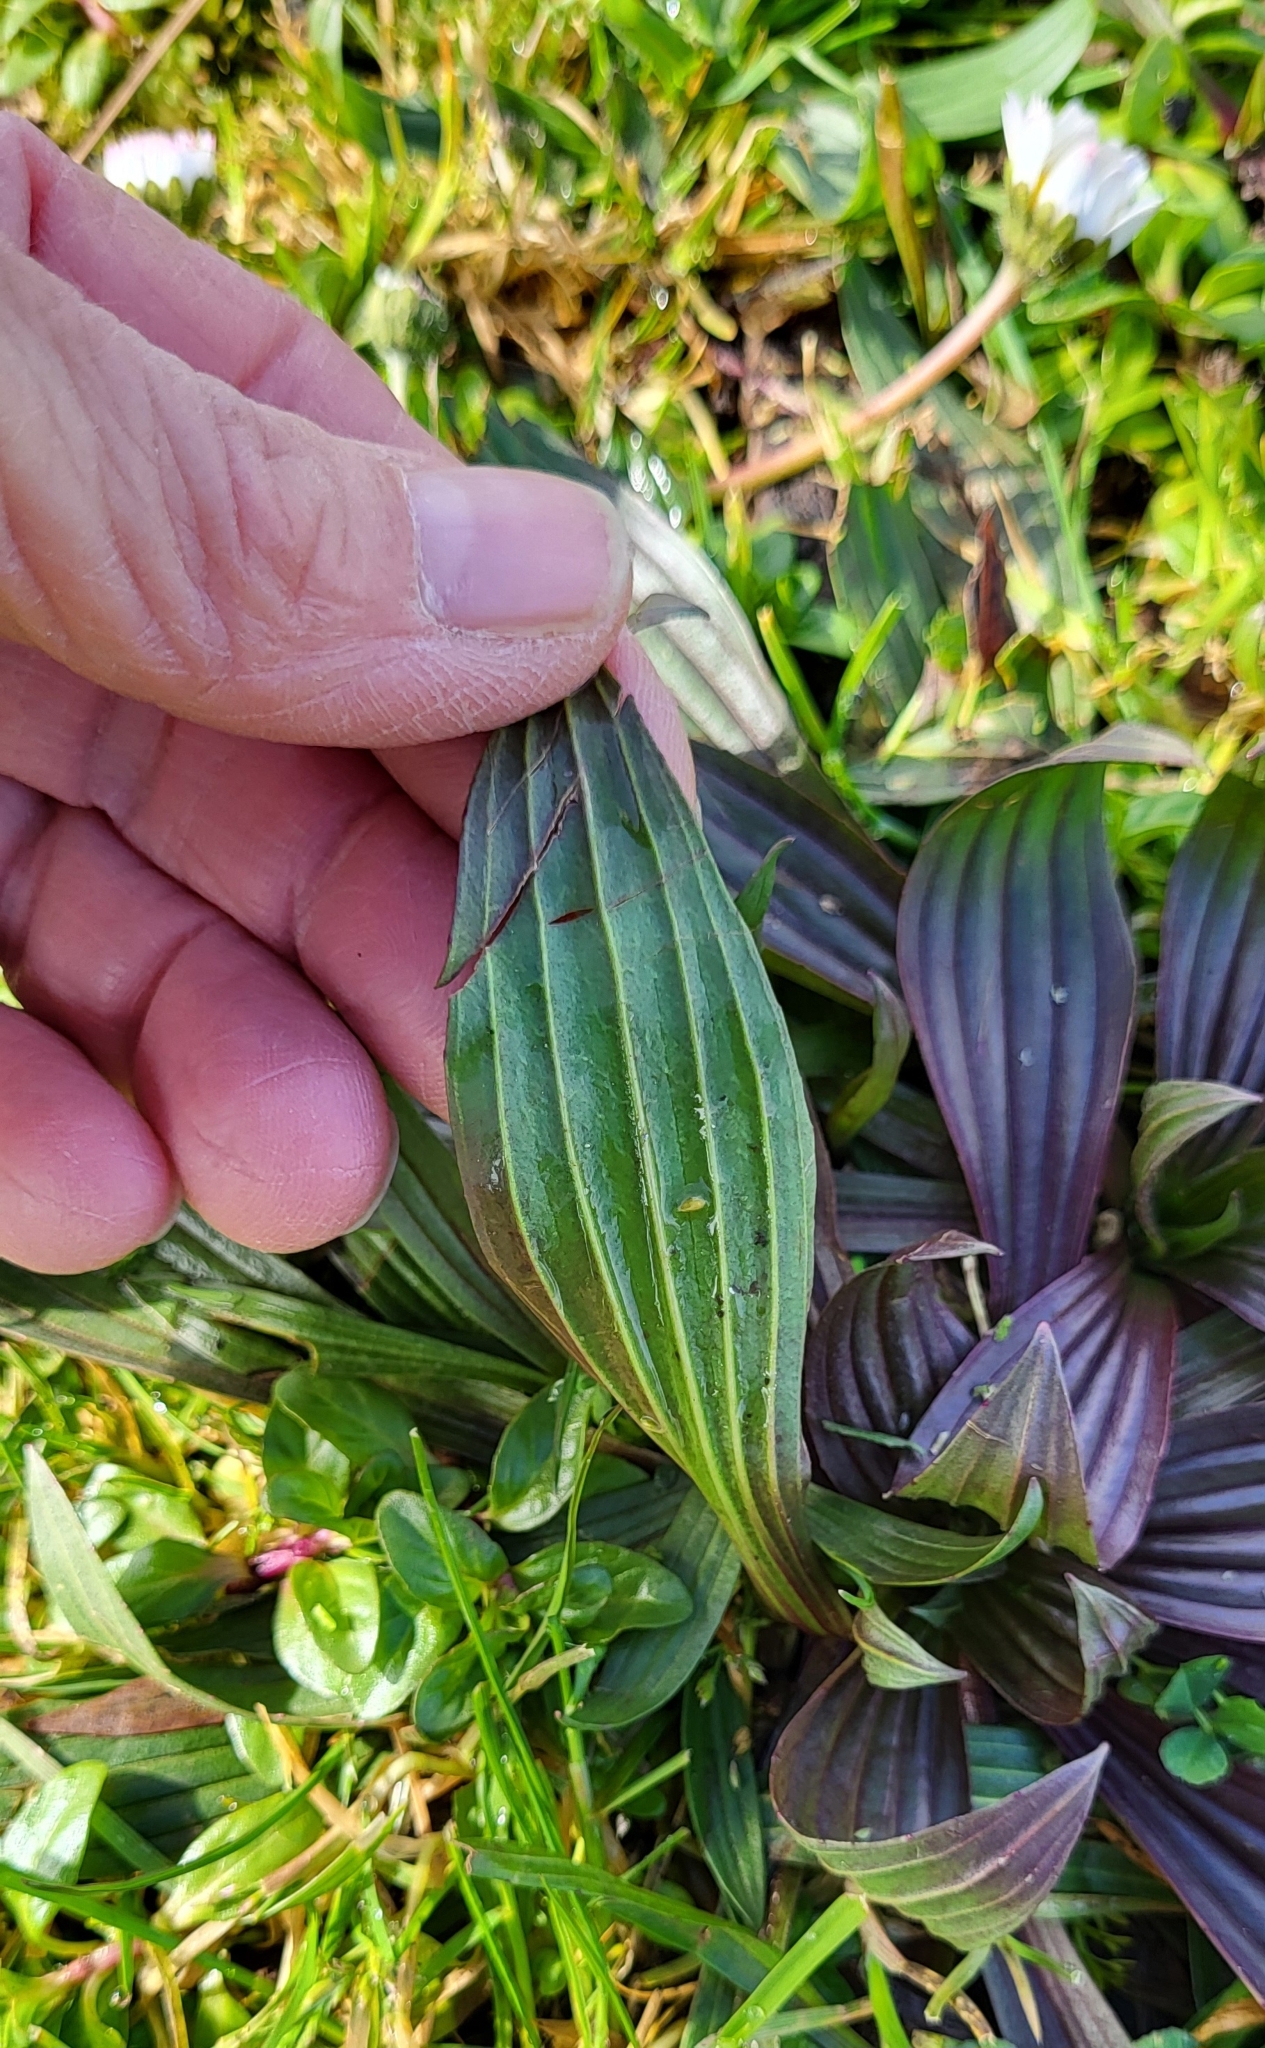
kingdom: Plantae
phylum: Tracheophyta
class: Magnoliopsida
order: Lamiales
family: Plantaginaceae
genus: Plantago
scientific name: Plantago lanceolata
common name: Ribwort plantain
